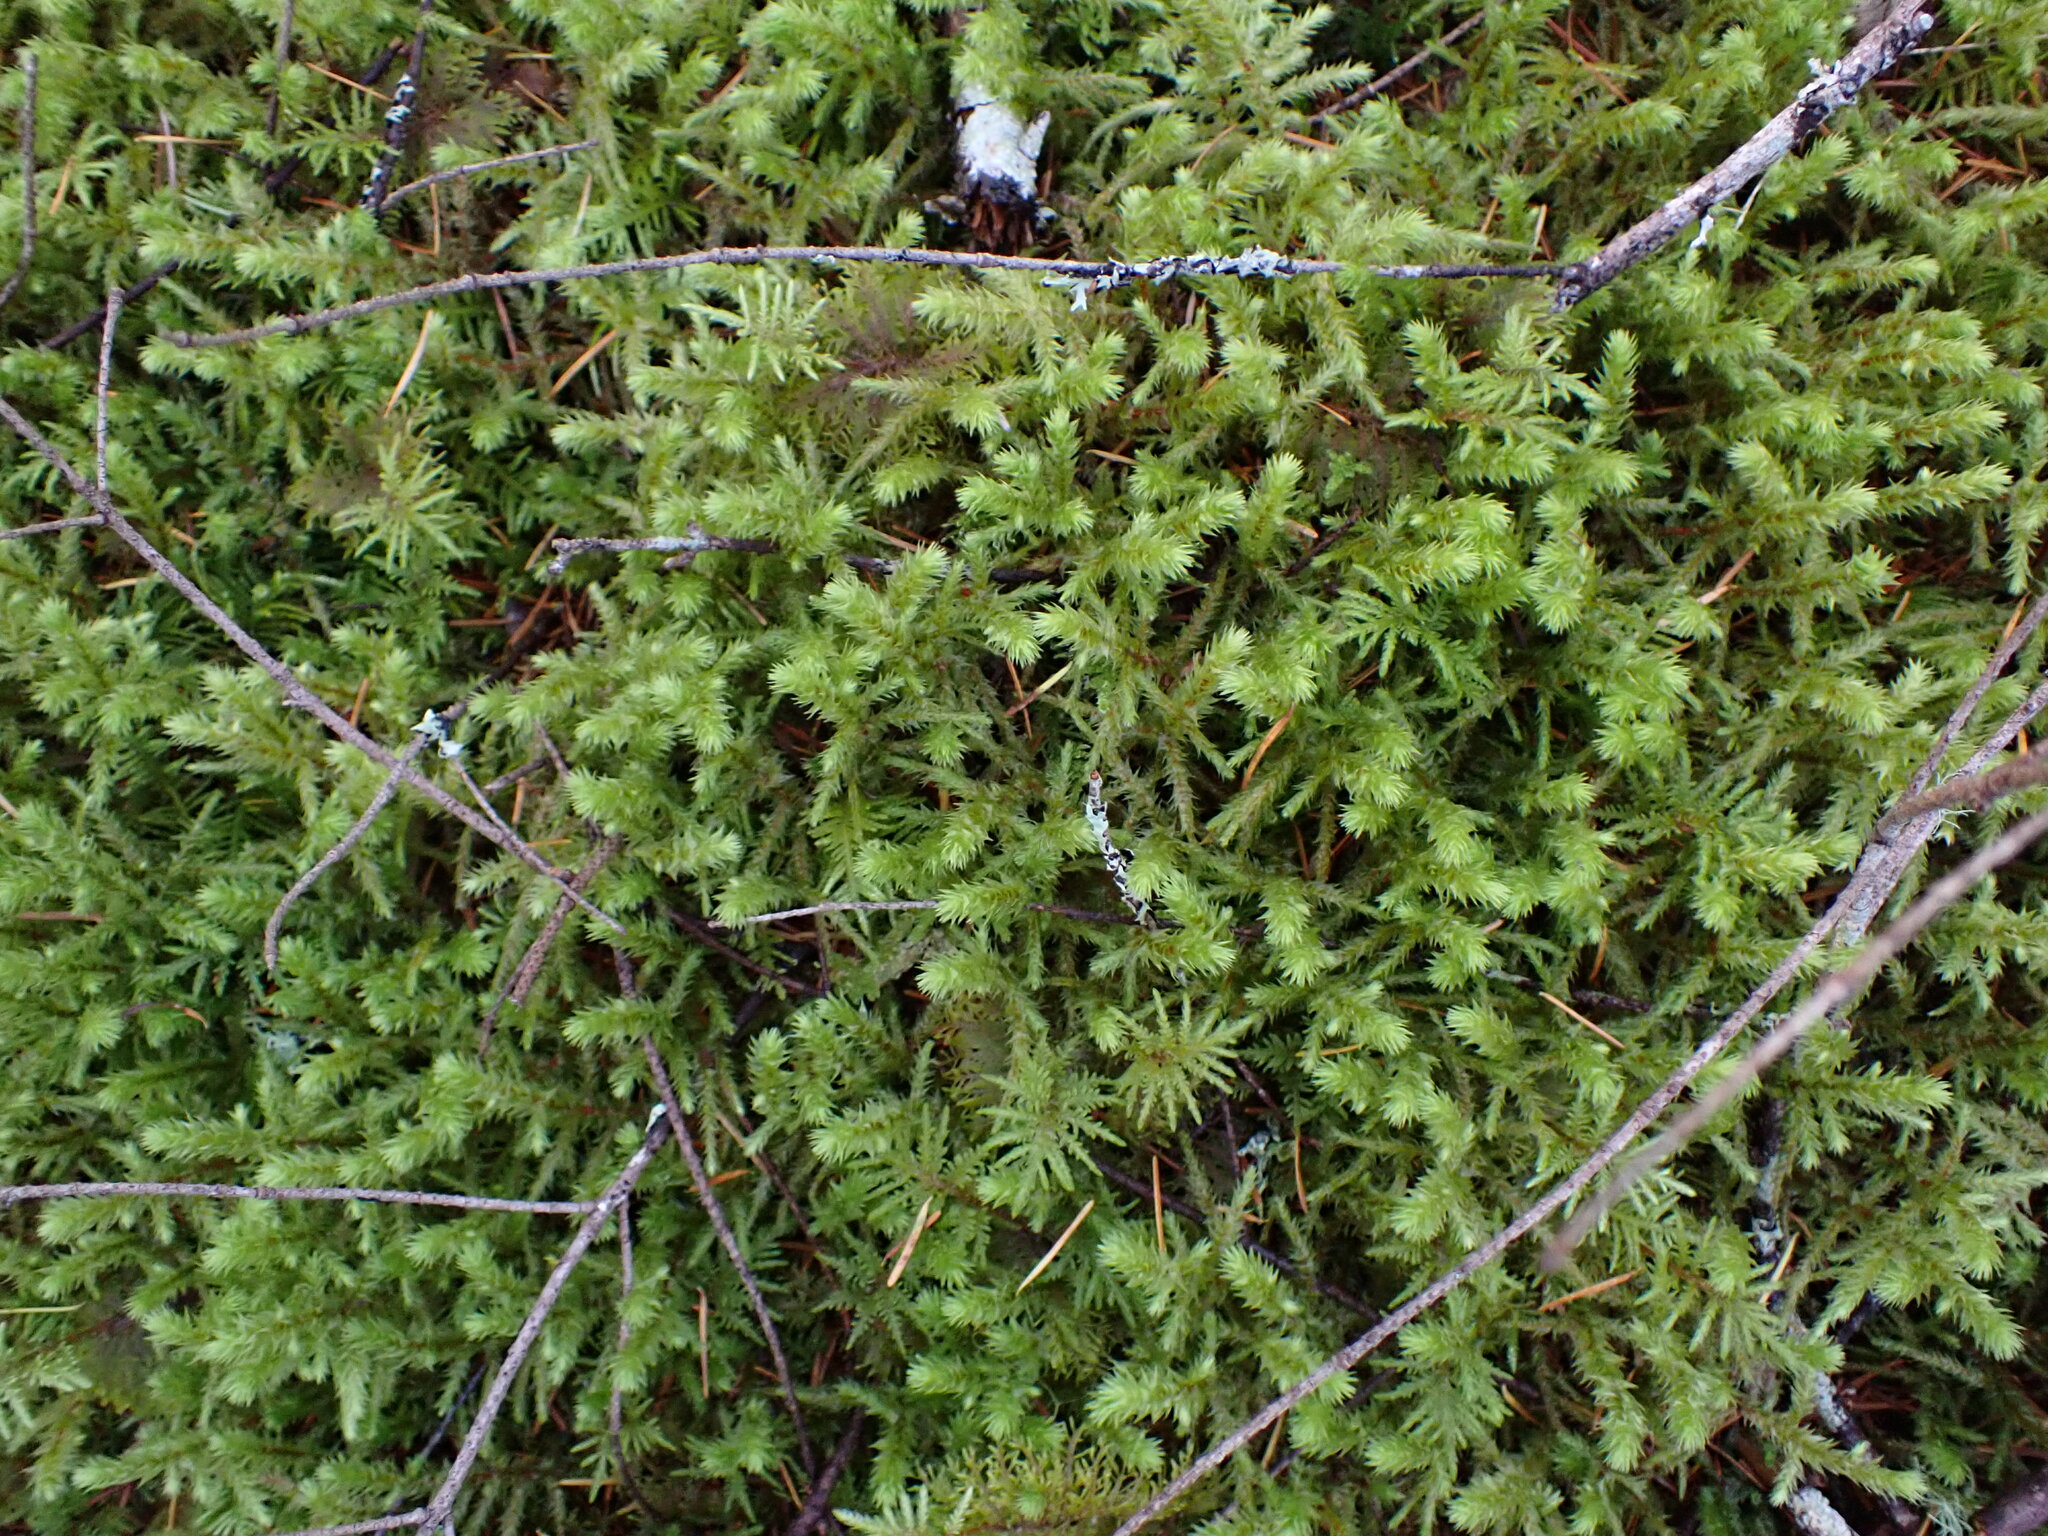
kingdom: Plantae
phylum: Bryophyta
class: Bryopsida
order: Hypnales
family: Hylocomiaceae
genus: Hylocomiadelphus
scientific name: Hylocomiadelphus triquetrus
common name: Rough goose neck moss
